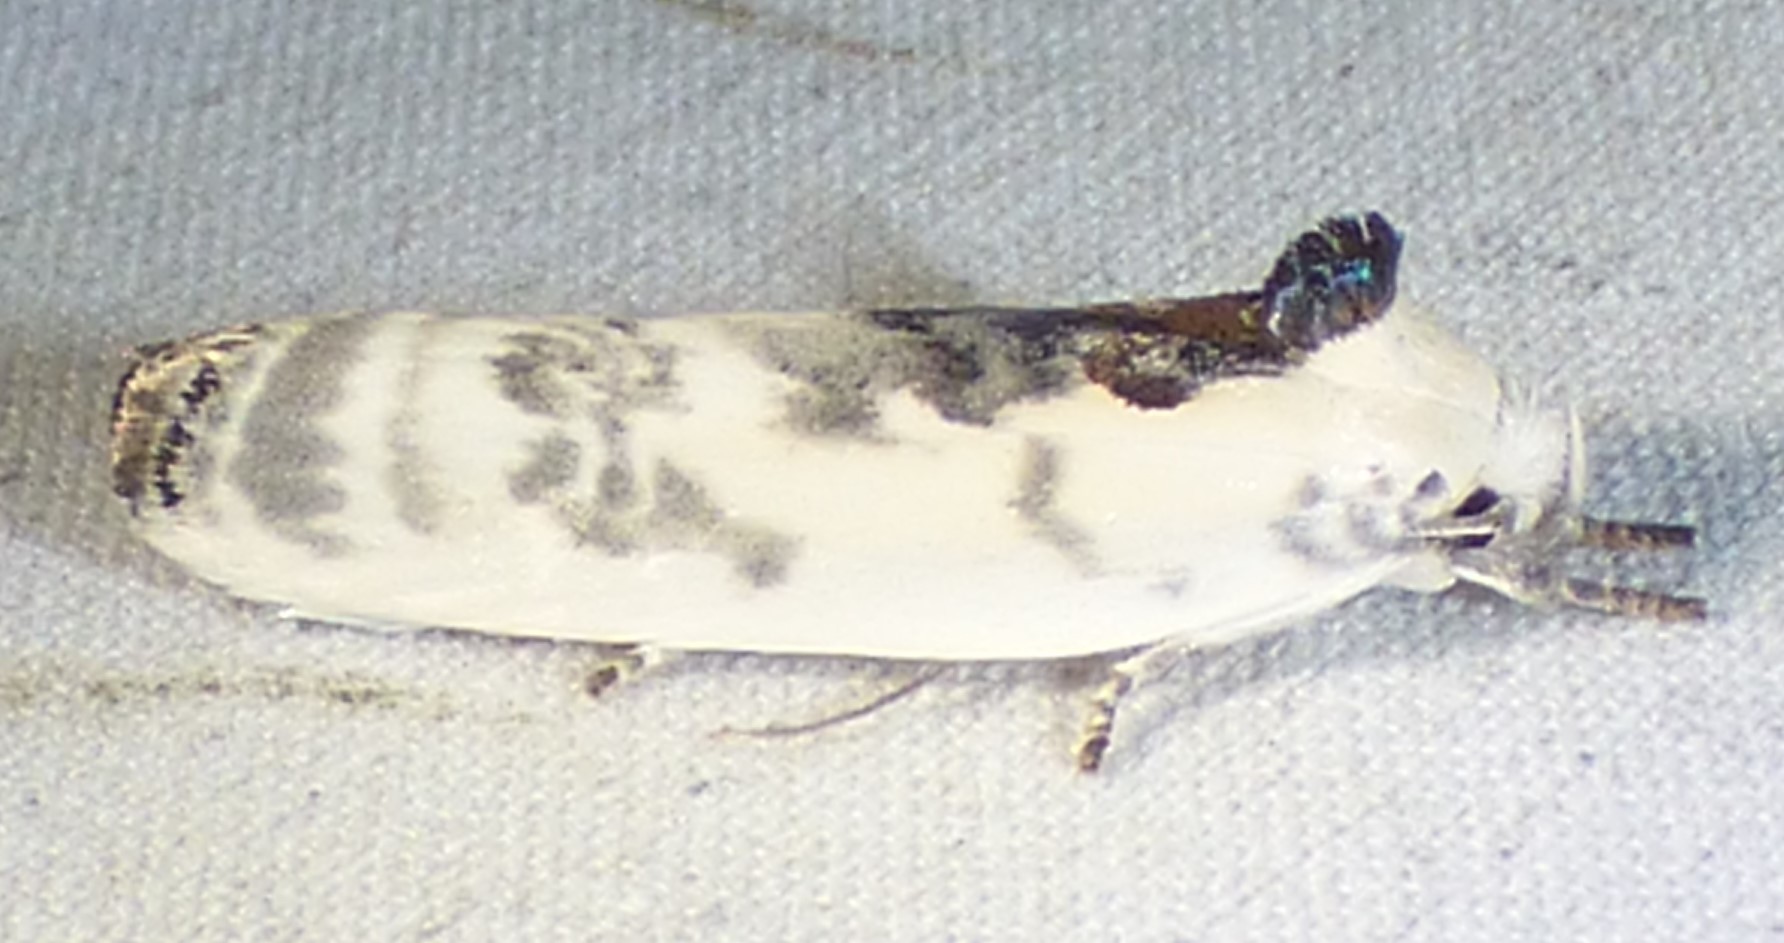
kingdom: Animalia
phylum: Arthropoda
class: Insecta
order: Lepidoptera
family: Depressariidae
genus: Antaeotricha
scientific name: Antaeotricha schlaegeri
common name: Schlaeger's fruitworm moth
